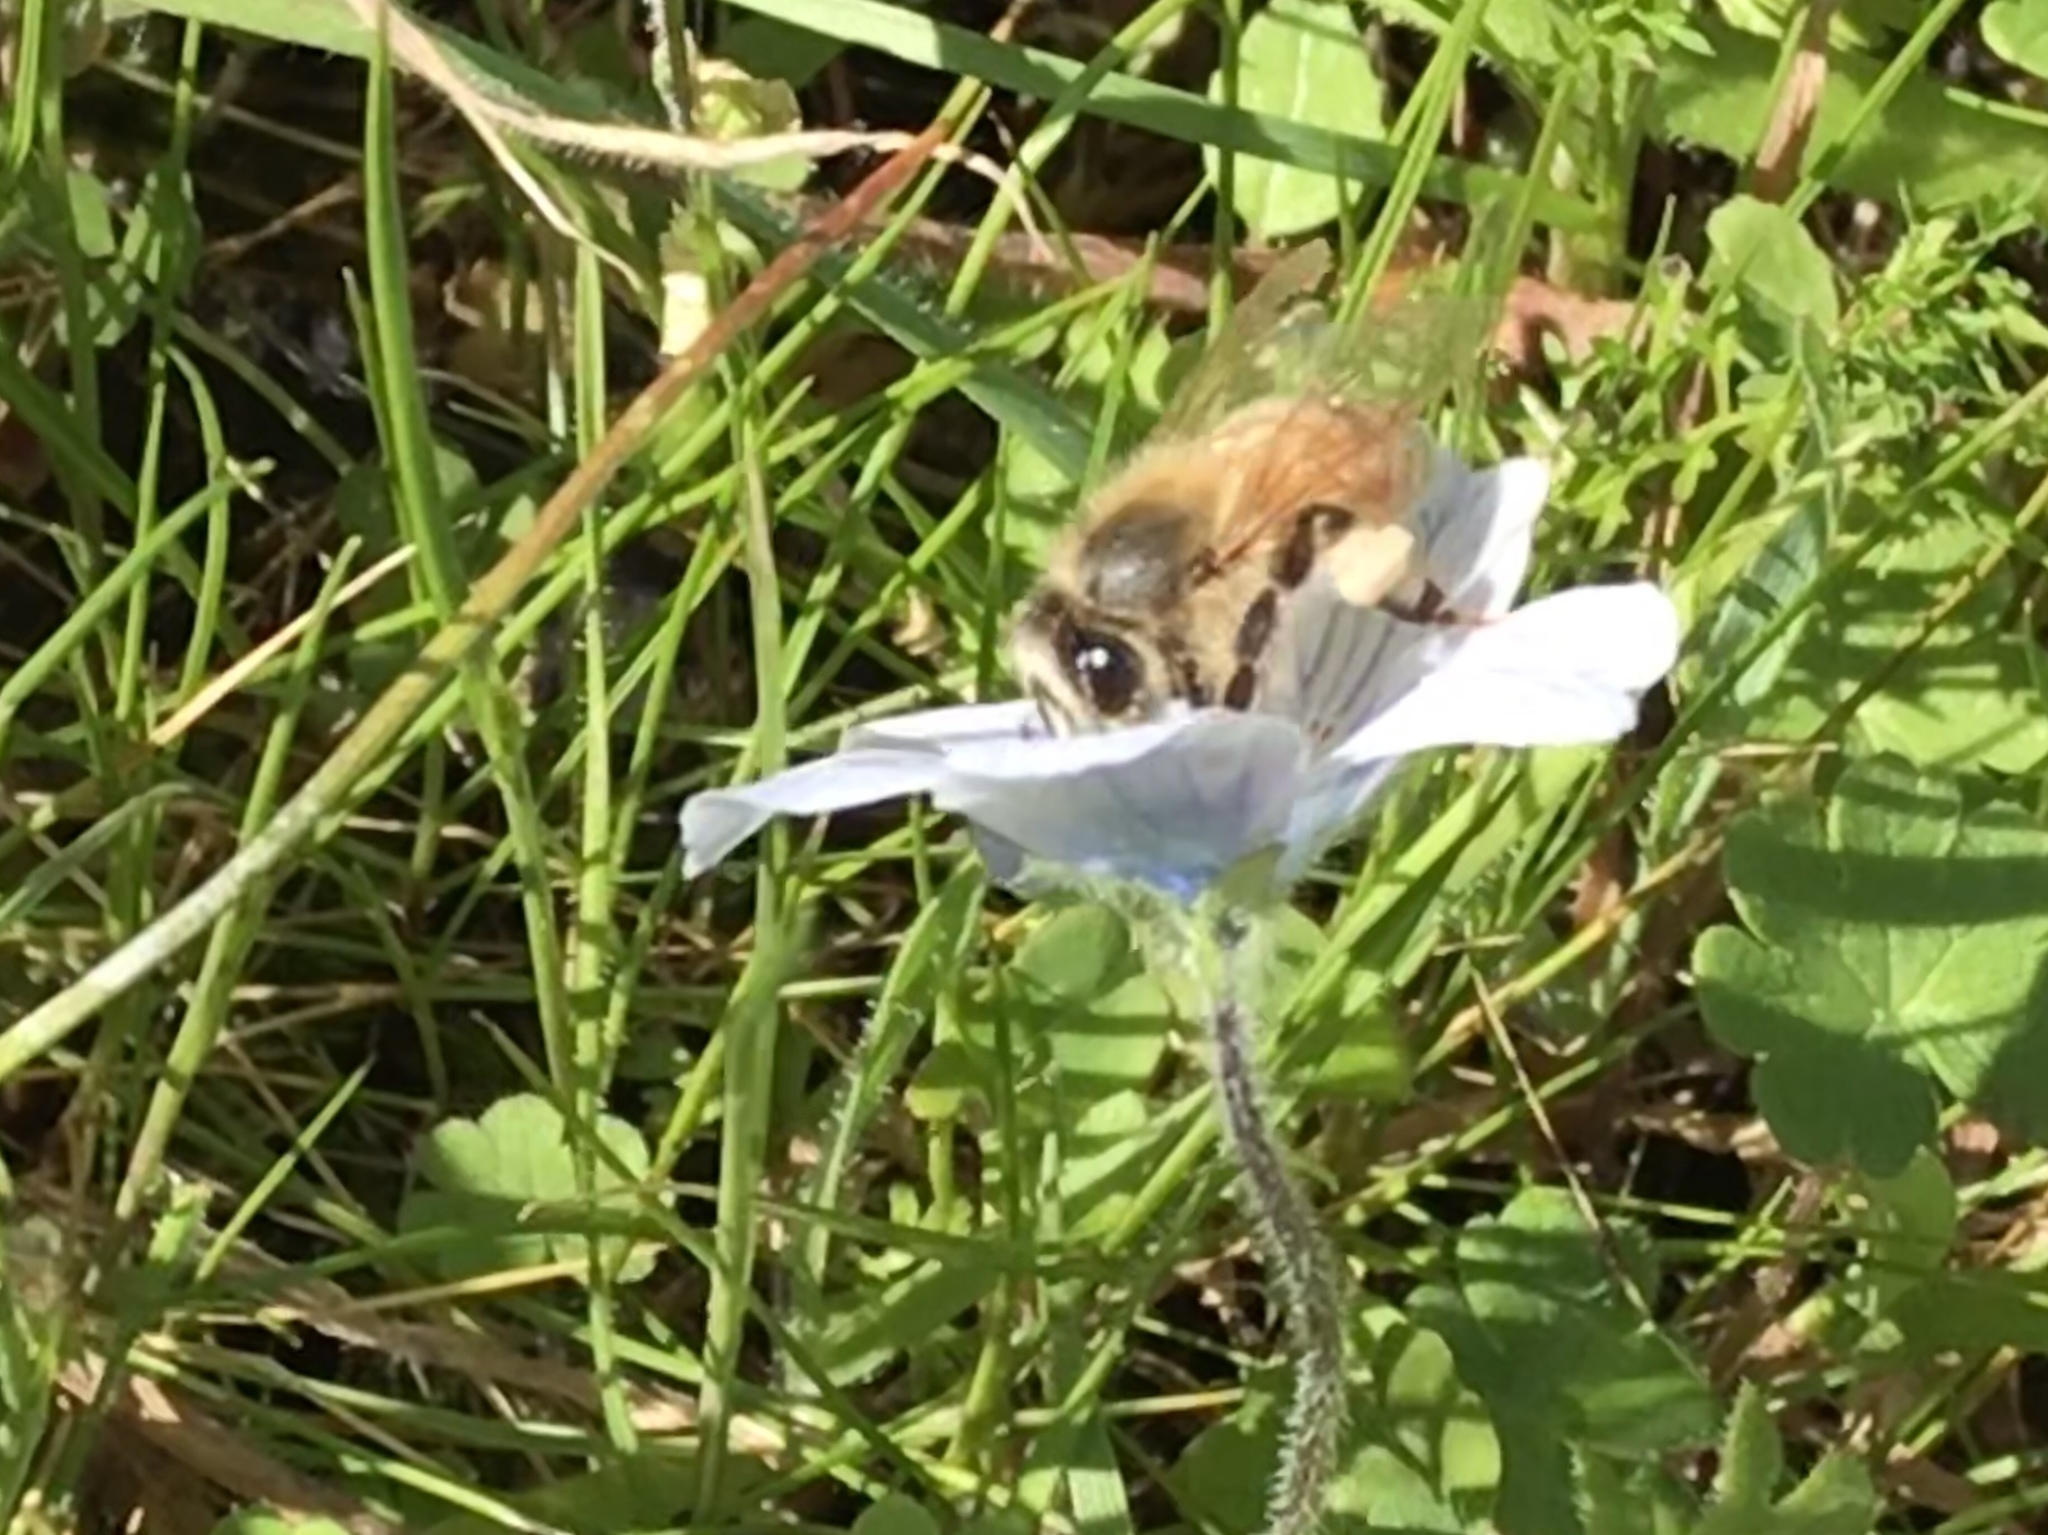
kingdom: Animalia
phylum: Arthropoda
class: Insecta
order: Hymenoptera
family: Apidae
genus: Apis
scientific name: Apis mellifera
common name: Honey bee
